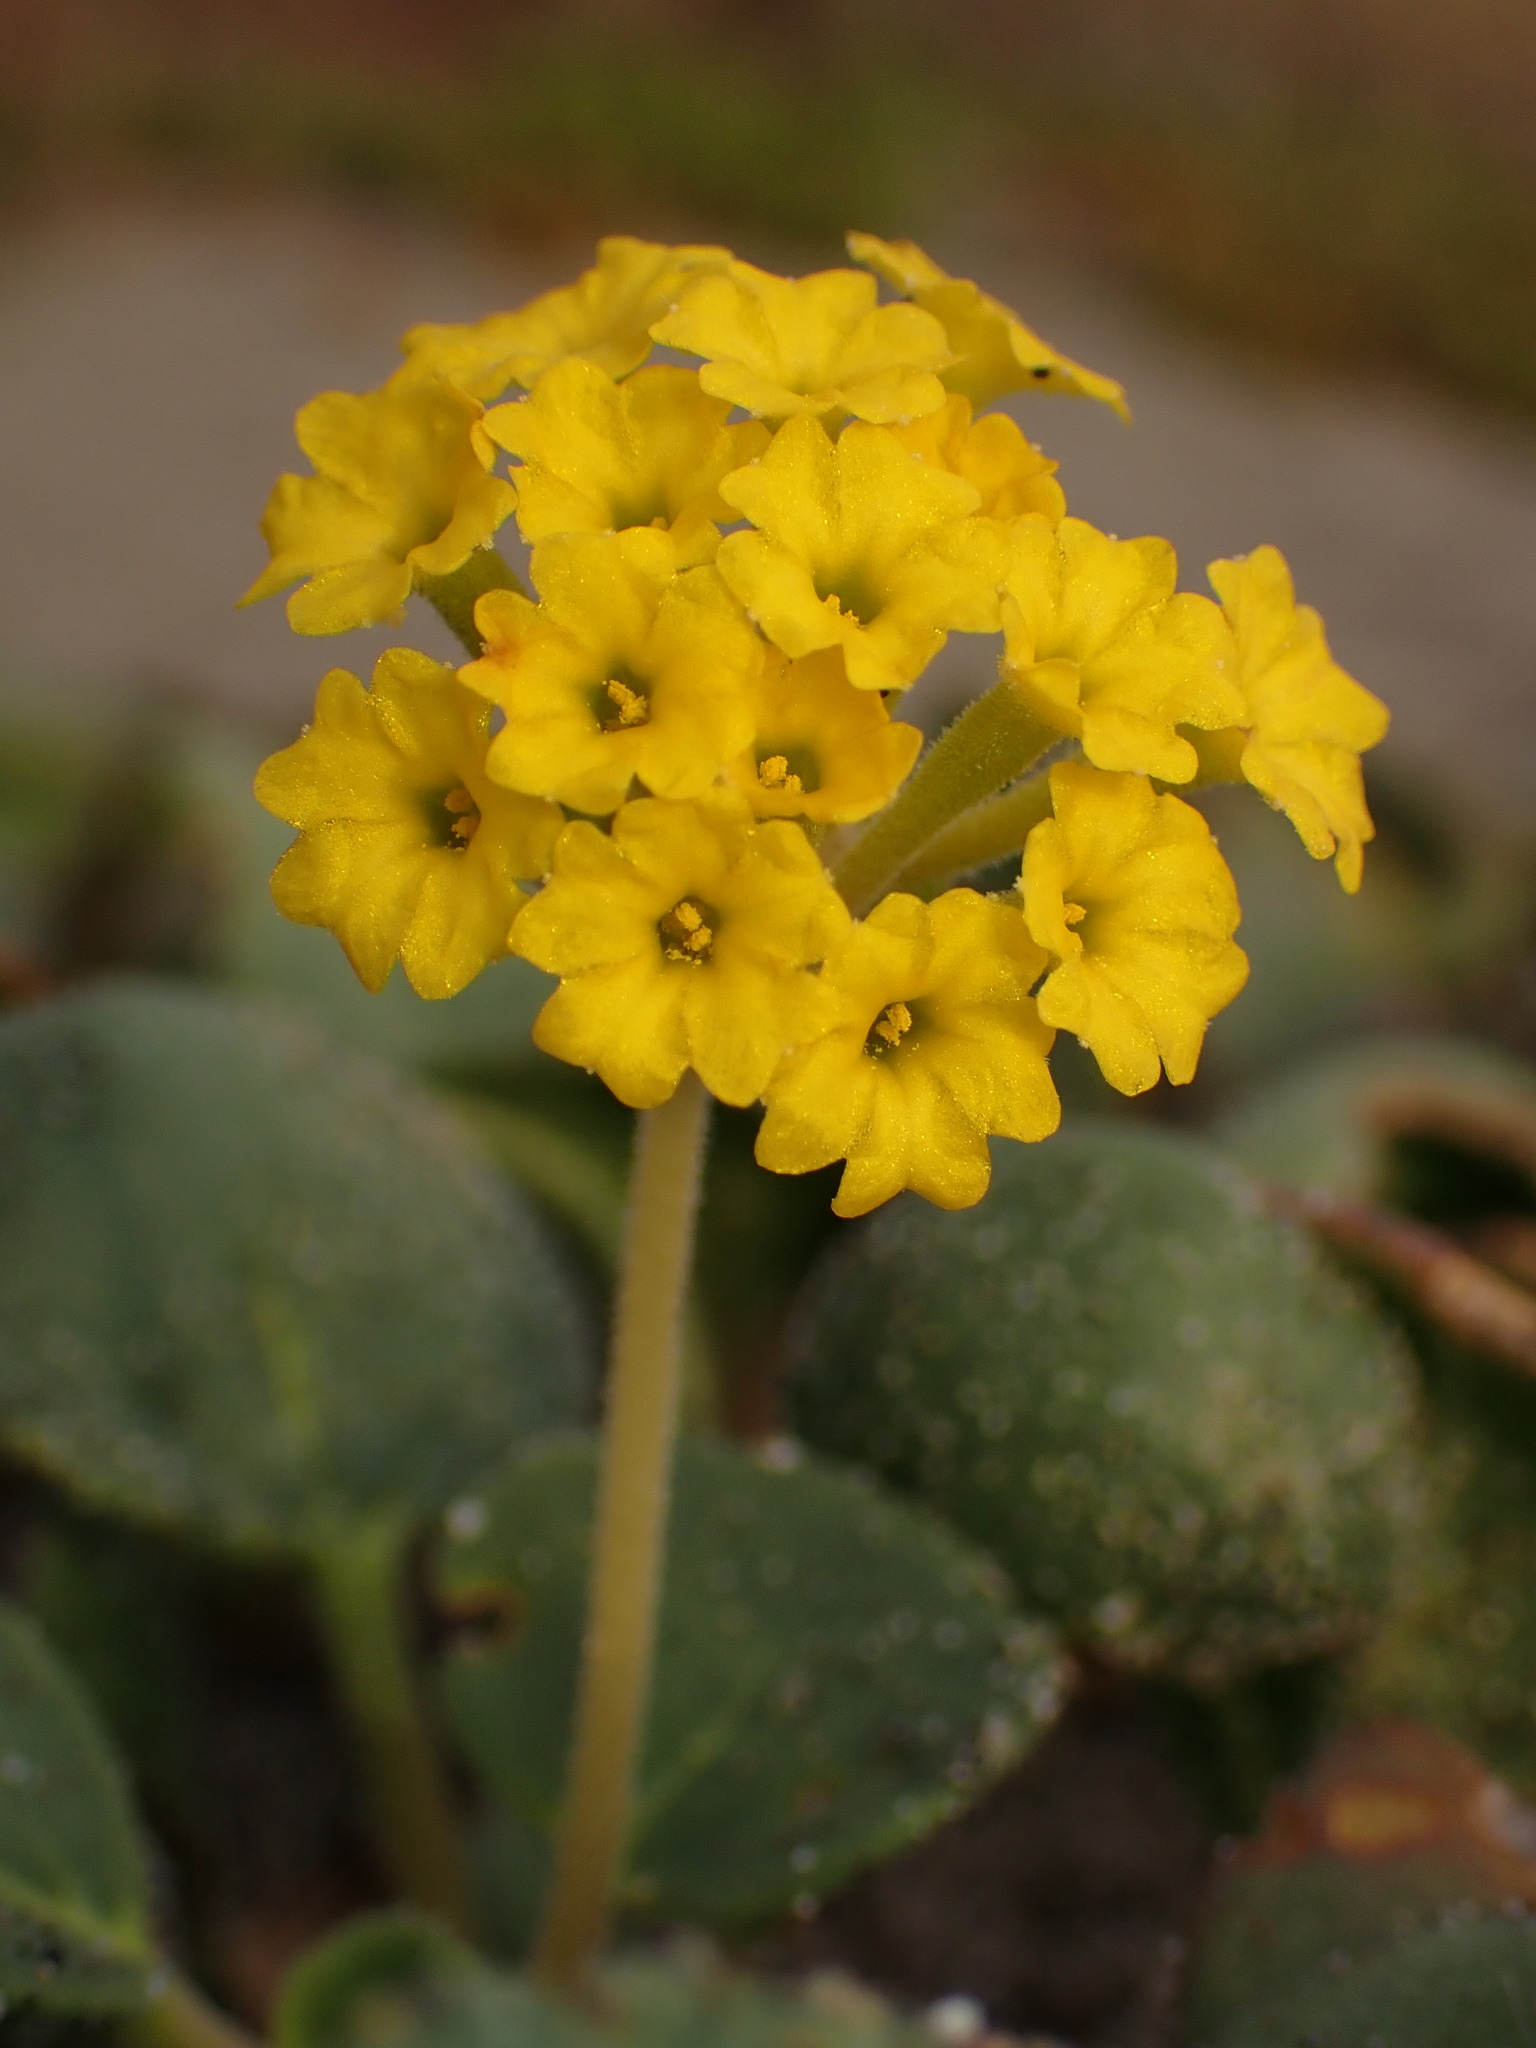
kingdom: Plantae
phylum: Tracheophyta
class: Magnoliopsida
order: Caryophyllales
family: Nyctaginaceae
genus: Abronia
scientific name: Abronia latifolia
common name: Yellow sand-verbena
